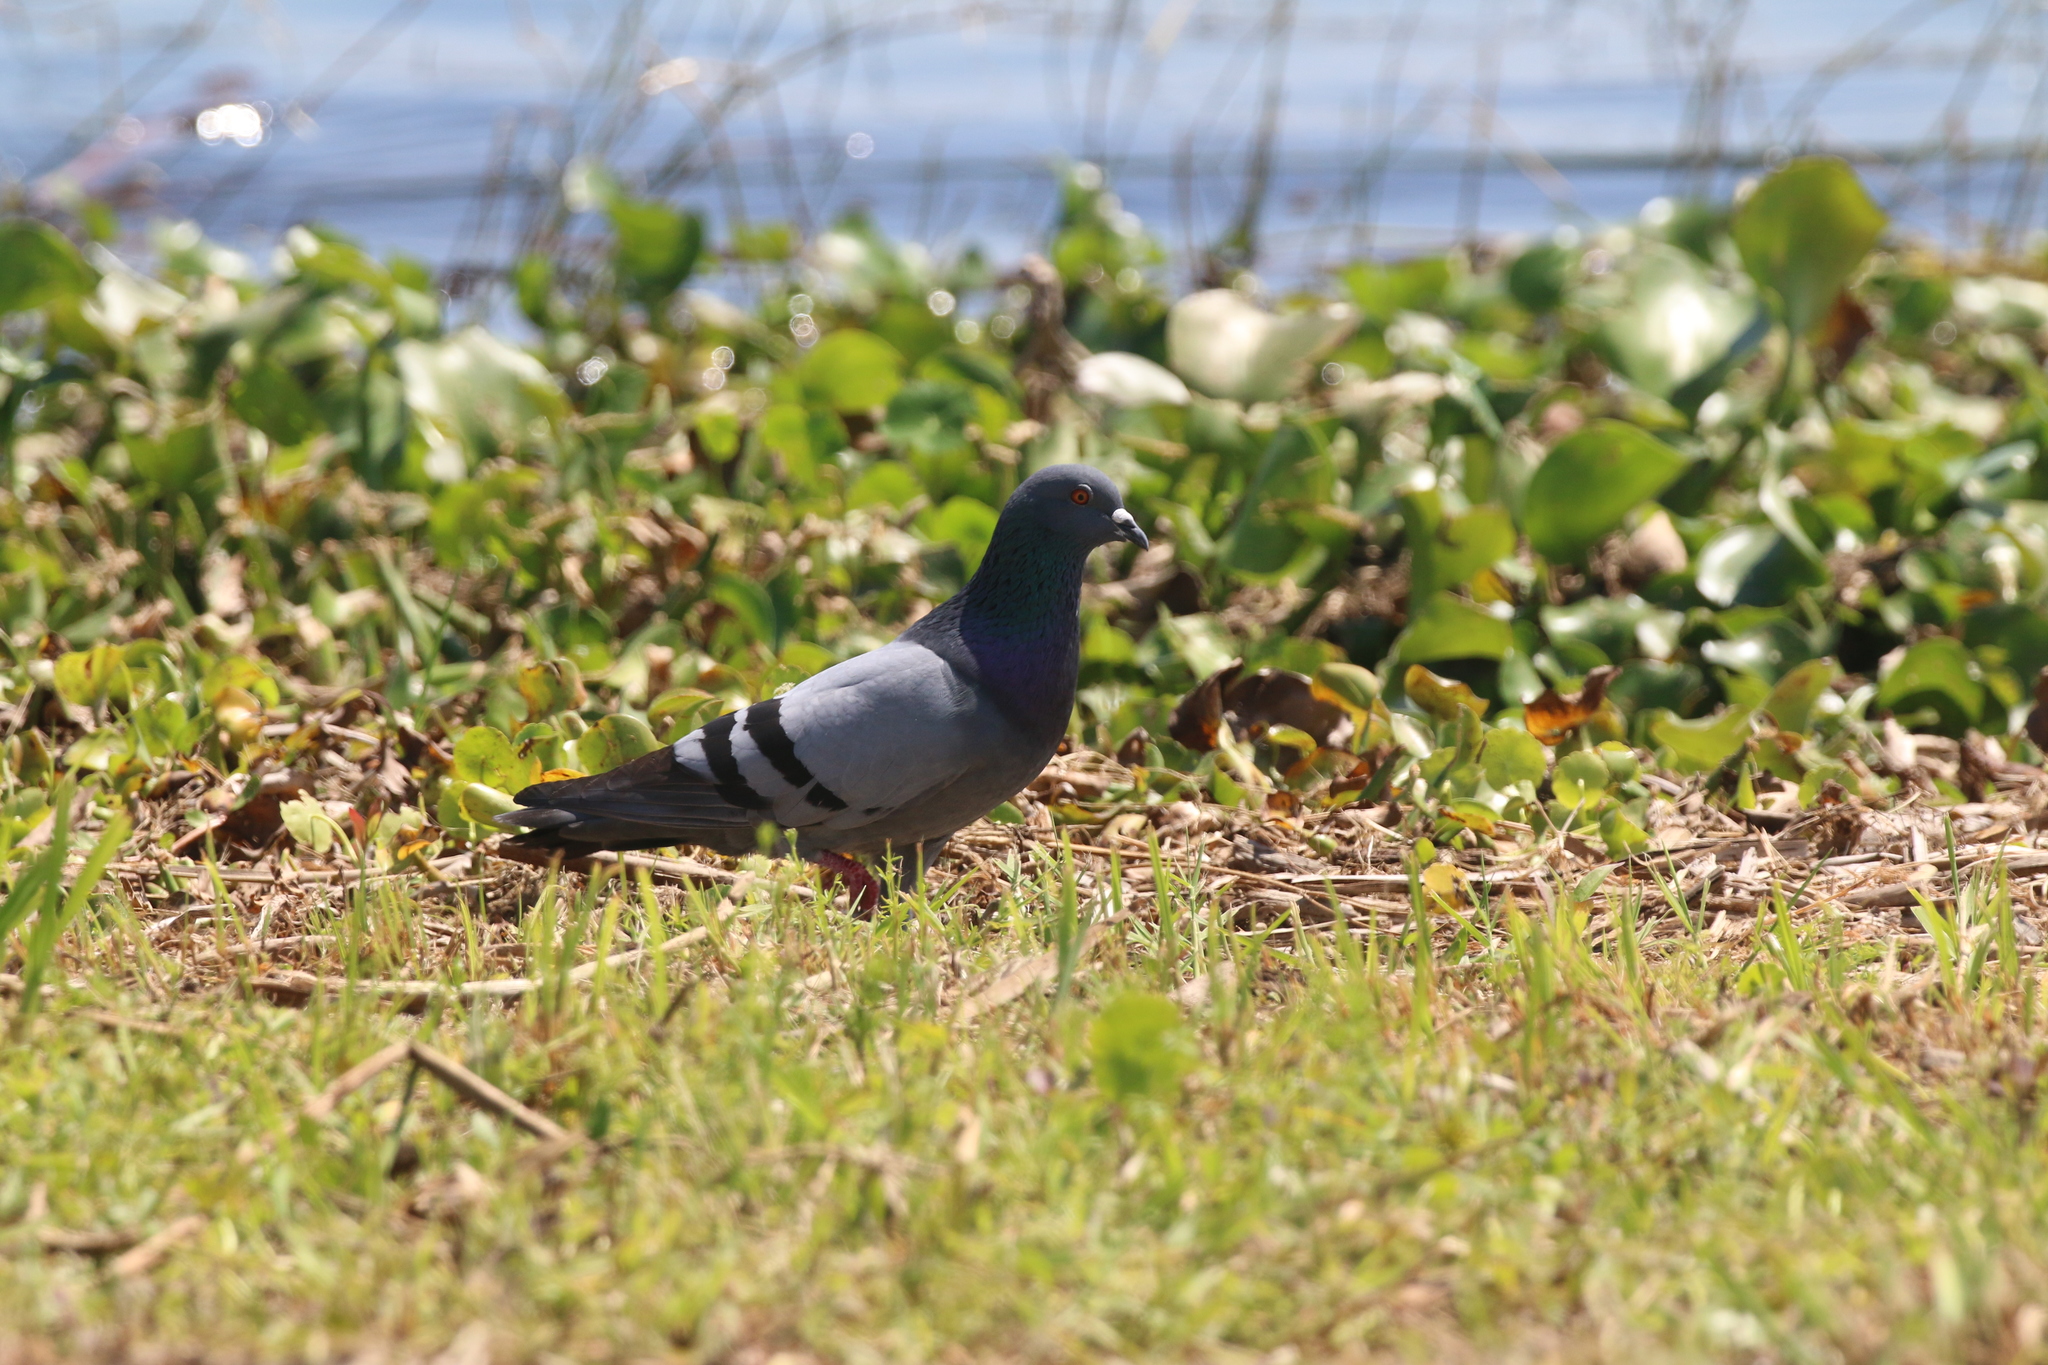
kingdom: Animalia
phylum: Chordata
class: Aves
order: Columbiformes
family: Columbidae
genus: Columba
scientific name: Columba livia
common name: Rock pigeon
